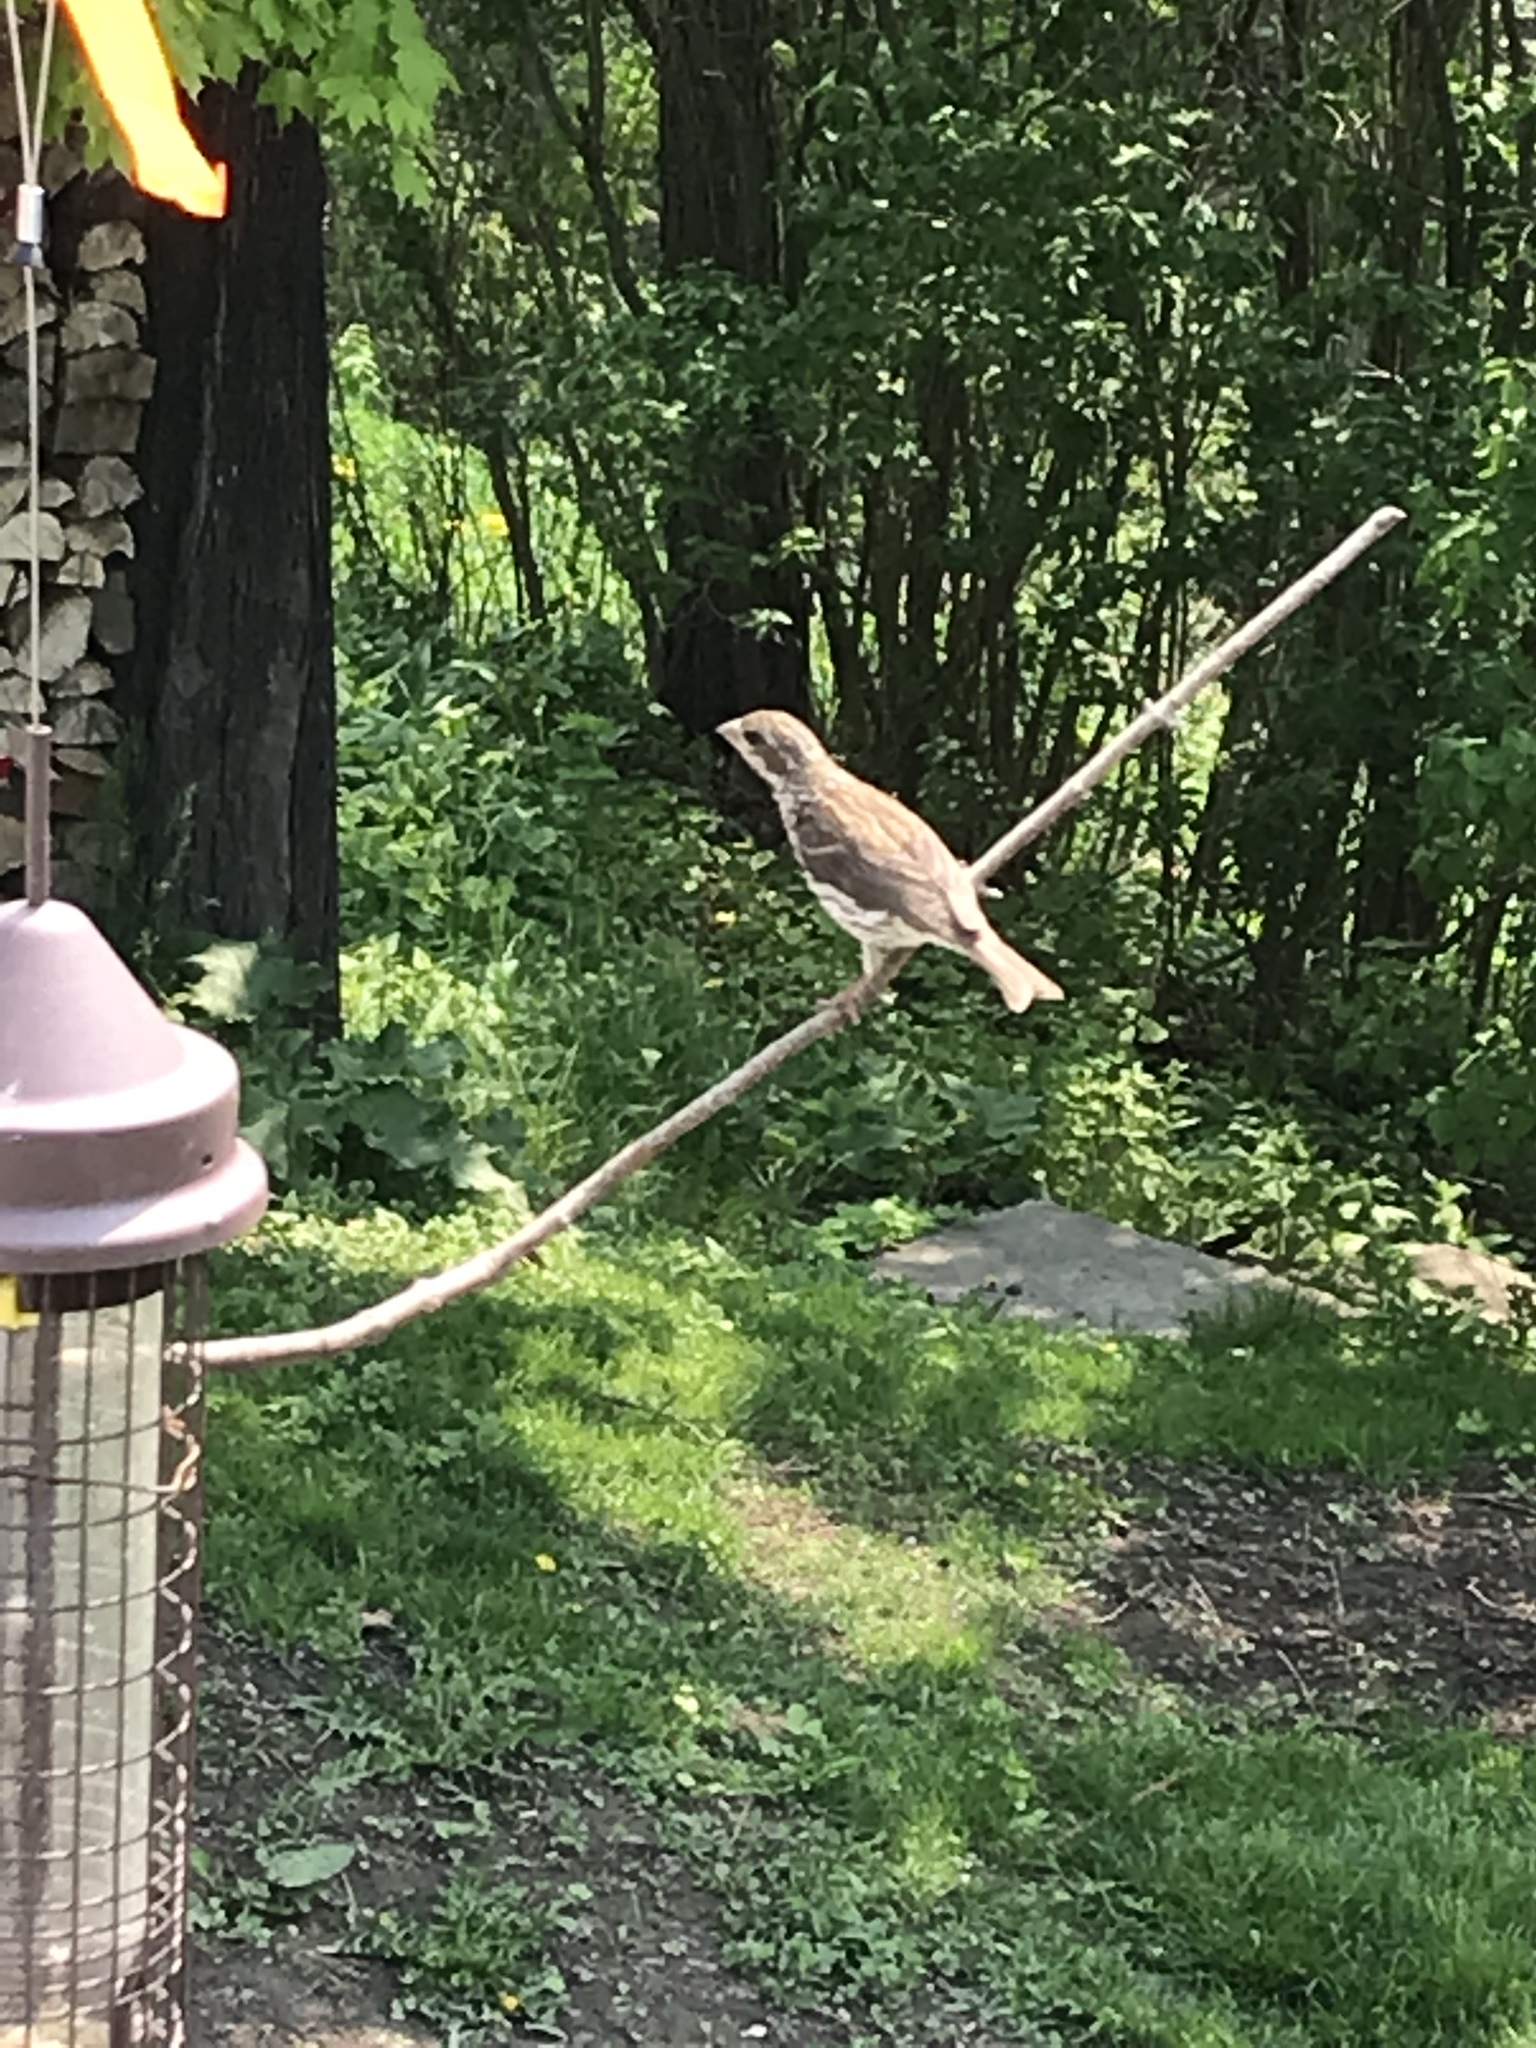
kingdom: Animalia
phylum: Chordata
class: Aves
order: Passeriformes
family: Fringillidae
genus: Haemorhous
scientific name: Haemorhous purpureus
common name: Purple finch
